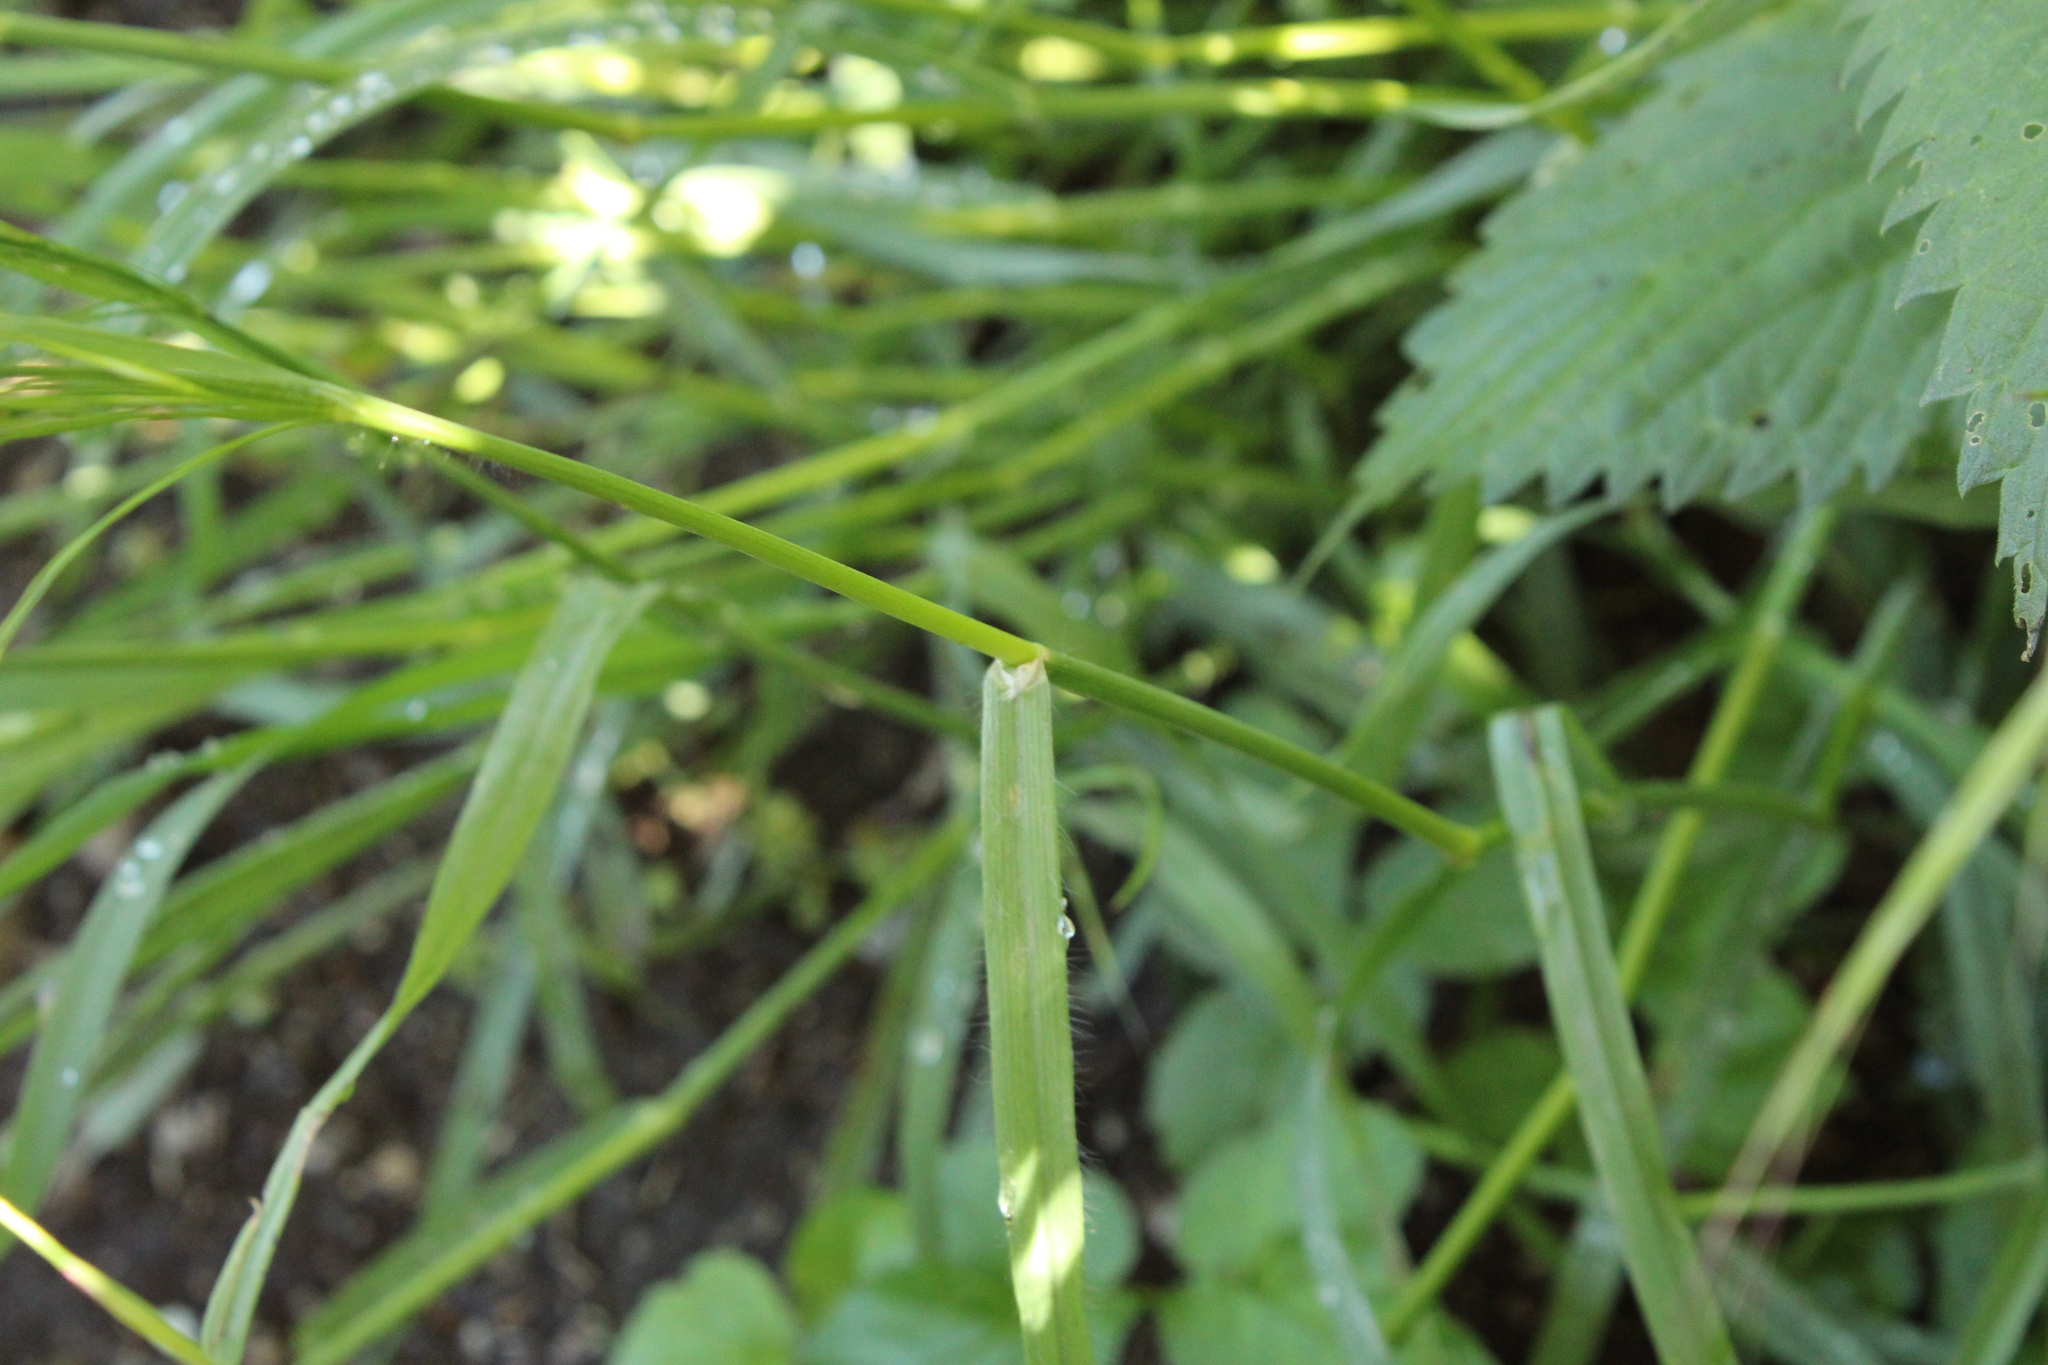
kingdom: Plantae
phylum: Tracheophyta
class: Liliopsida
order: Poales
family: Poaceae
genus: Bromus
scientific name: Bromus sterilis
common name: Poverty brome
